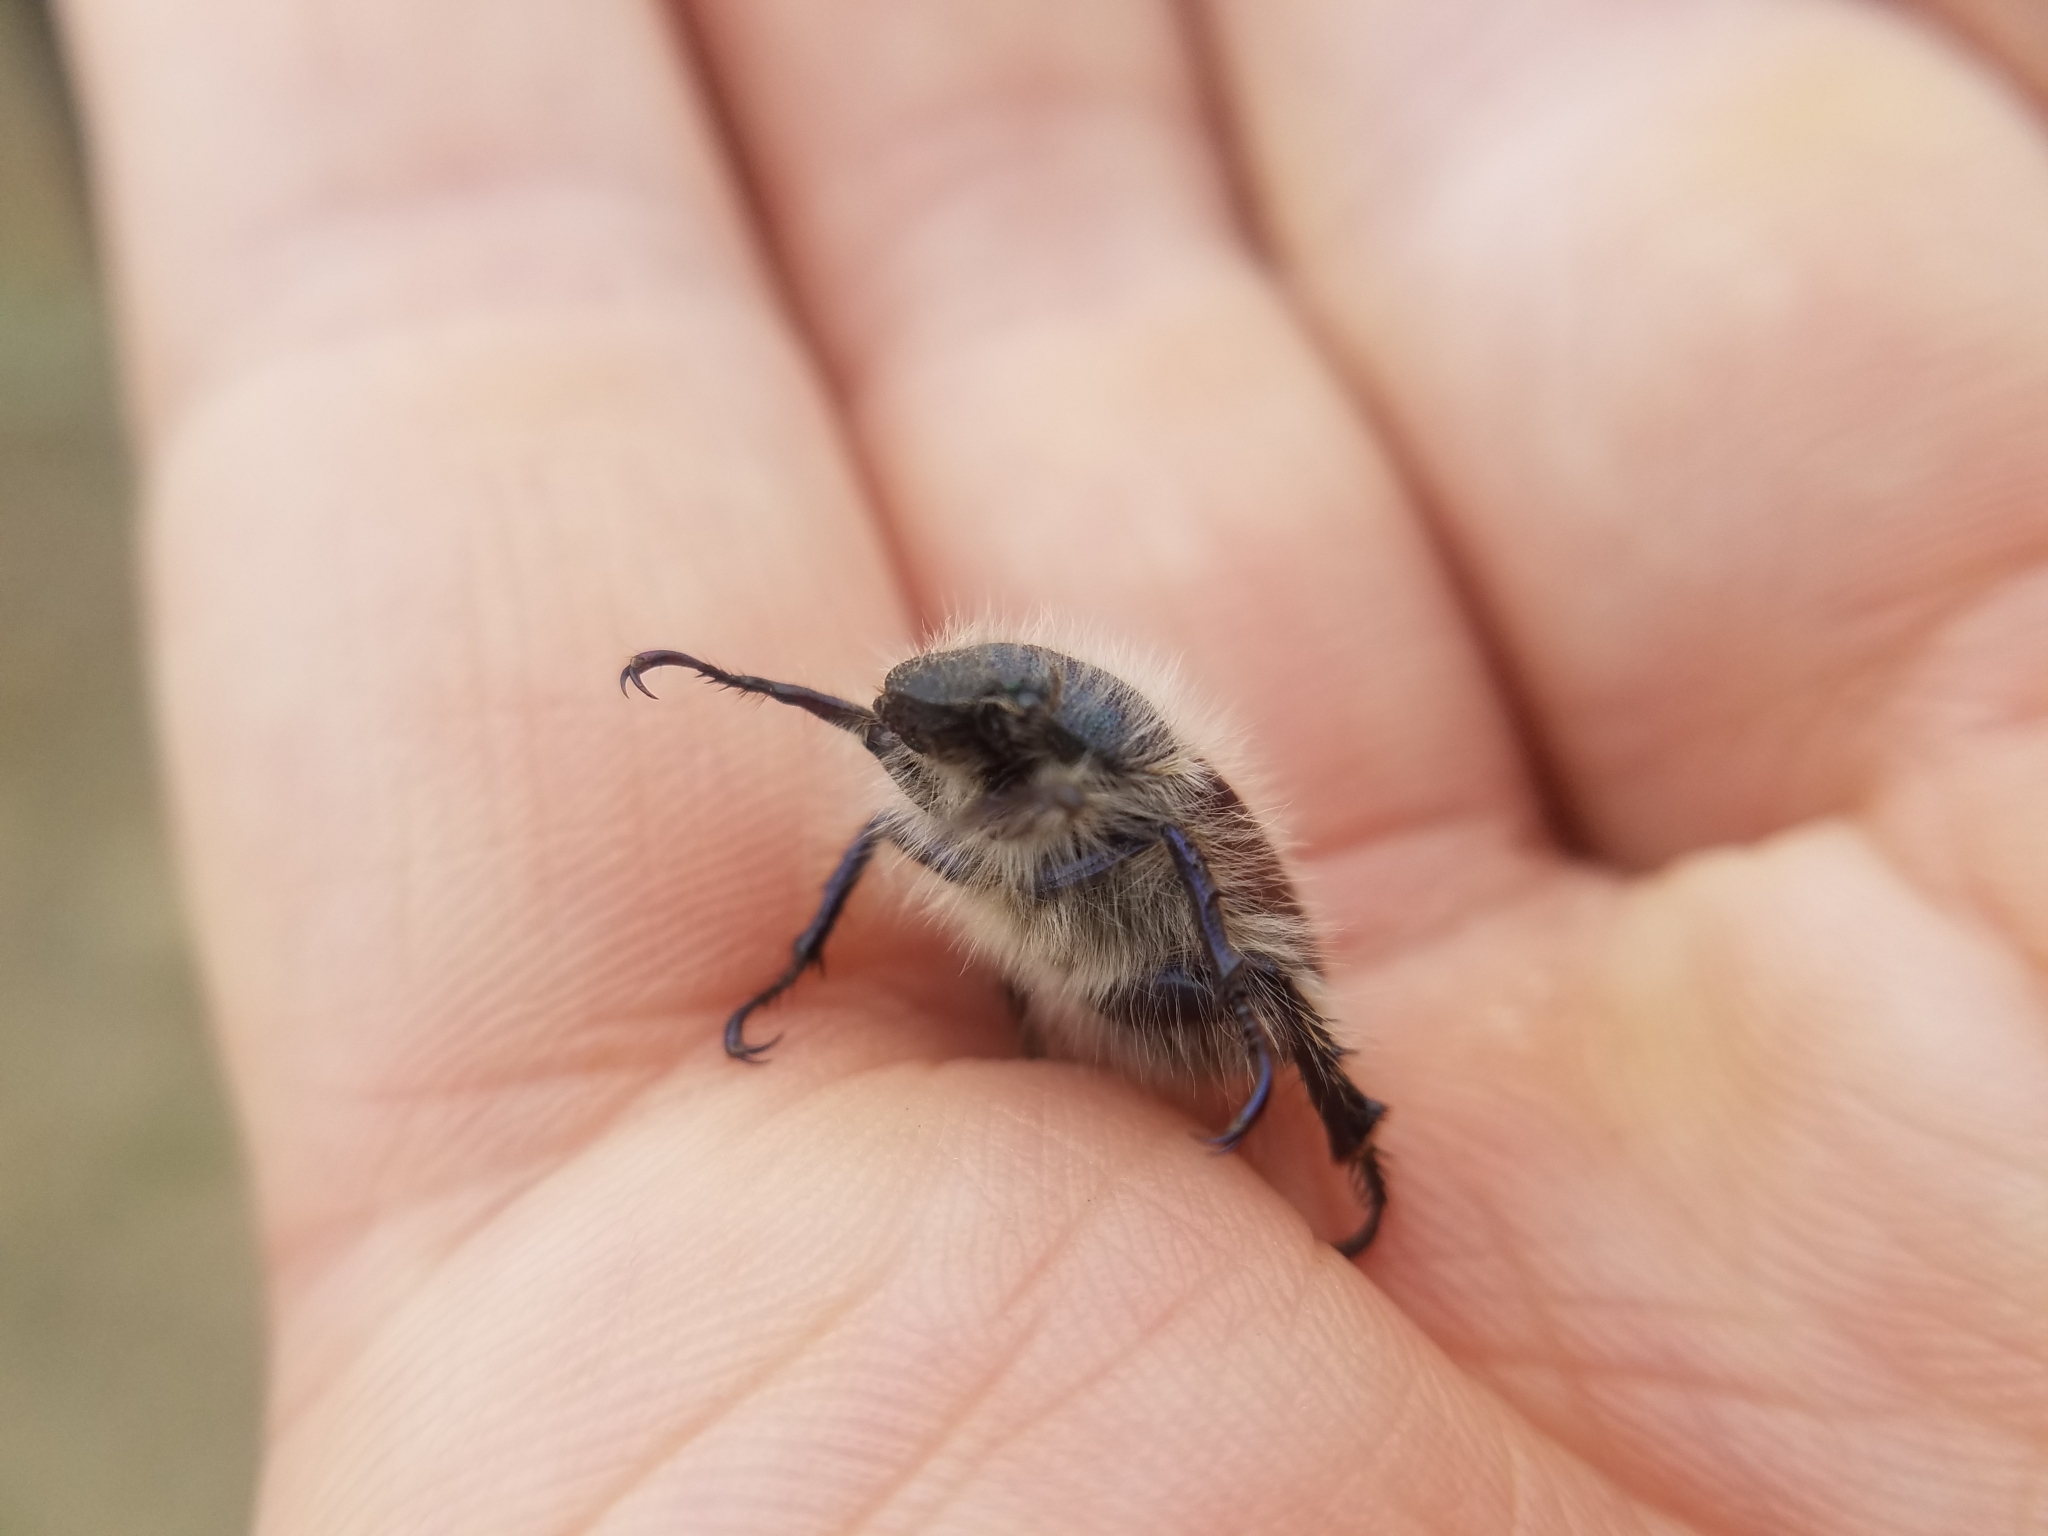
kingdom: Animalia
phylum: Arthropoda
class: Insecta
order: Coleoptera
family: Scarabaeidae
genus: Paracotalpa
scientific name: Paracotalpa granicollis
